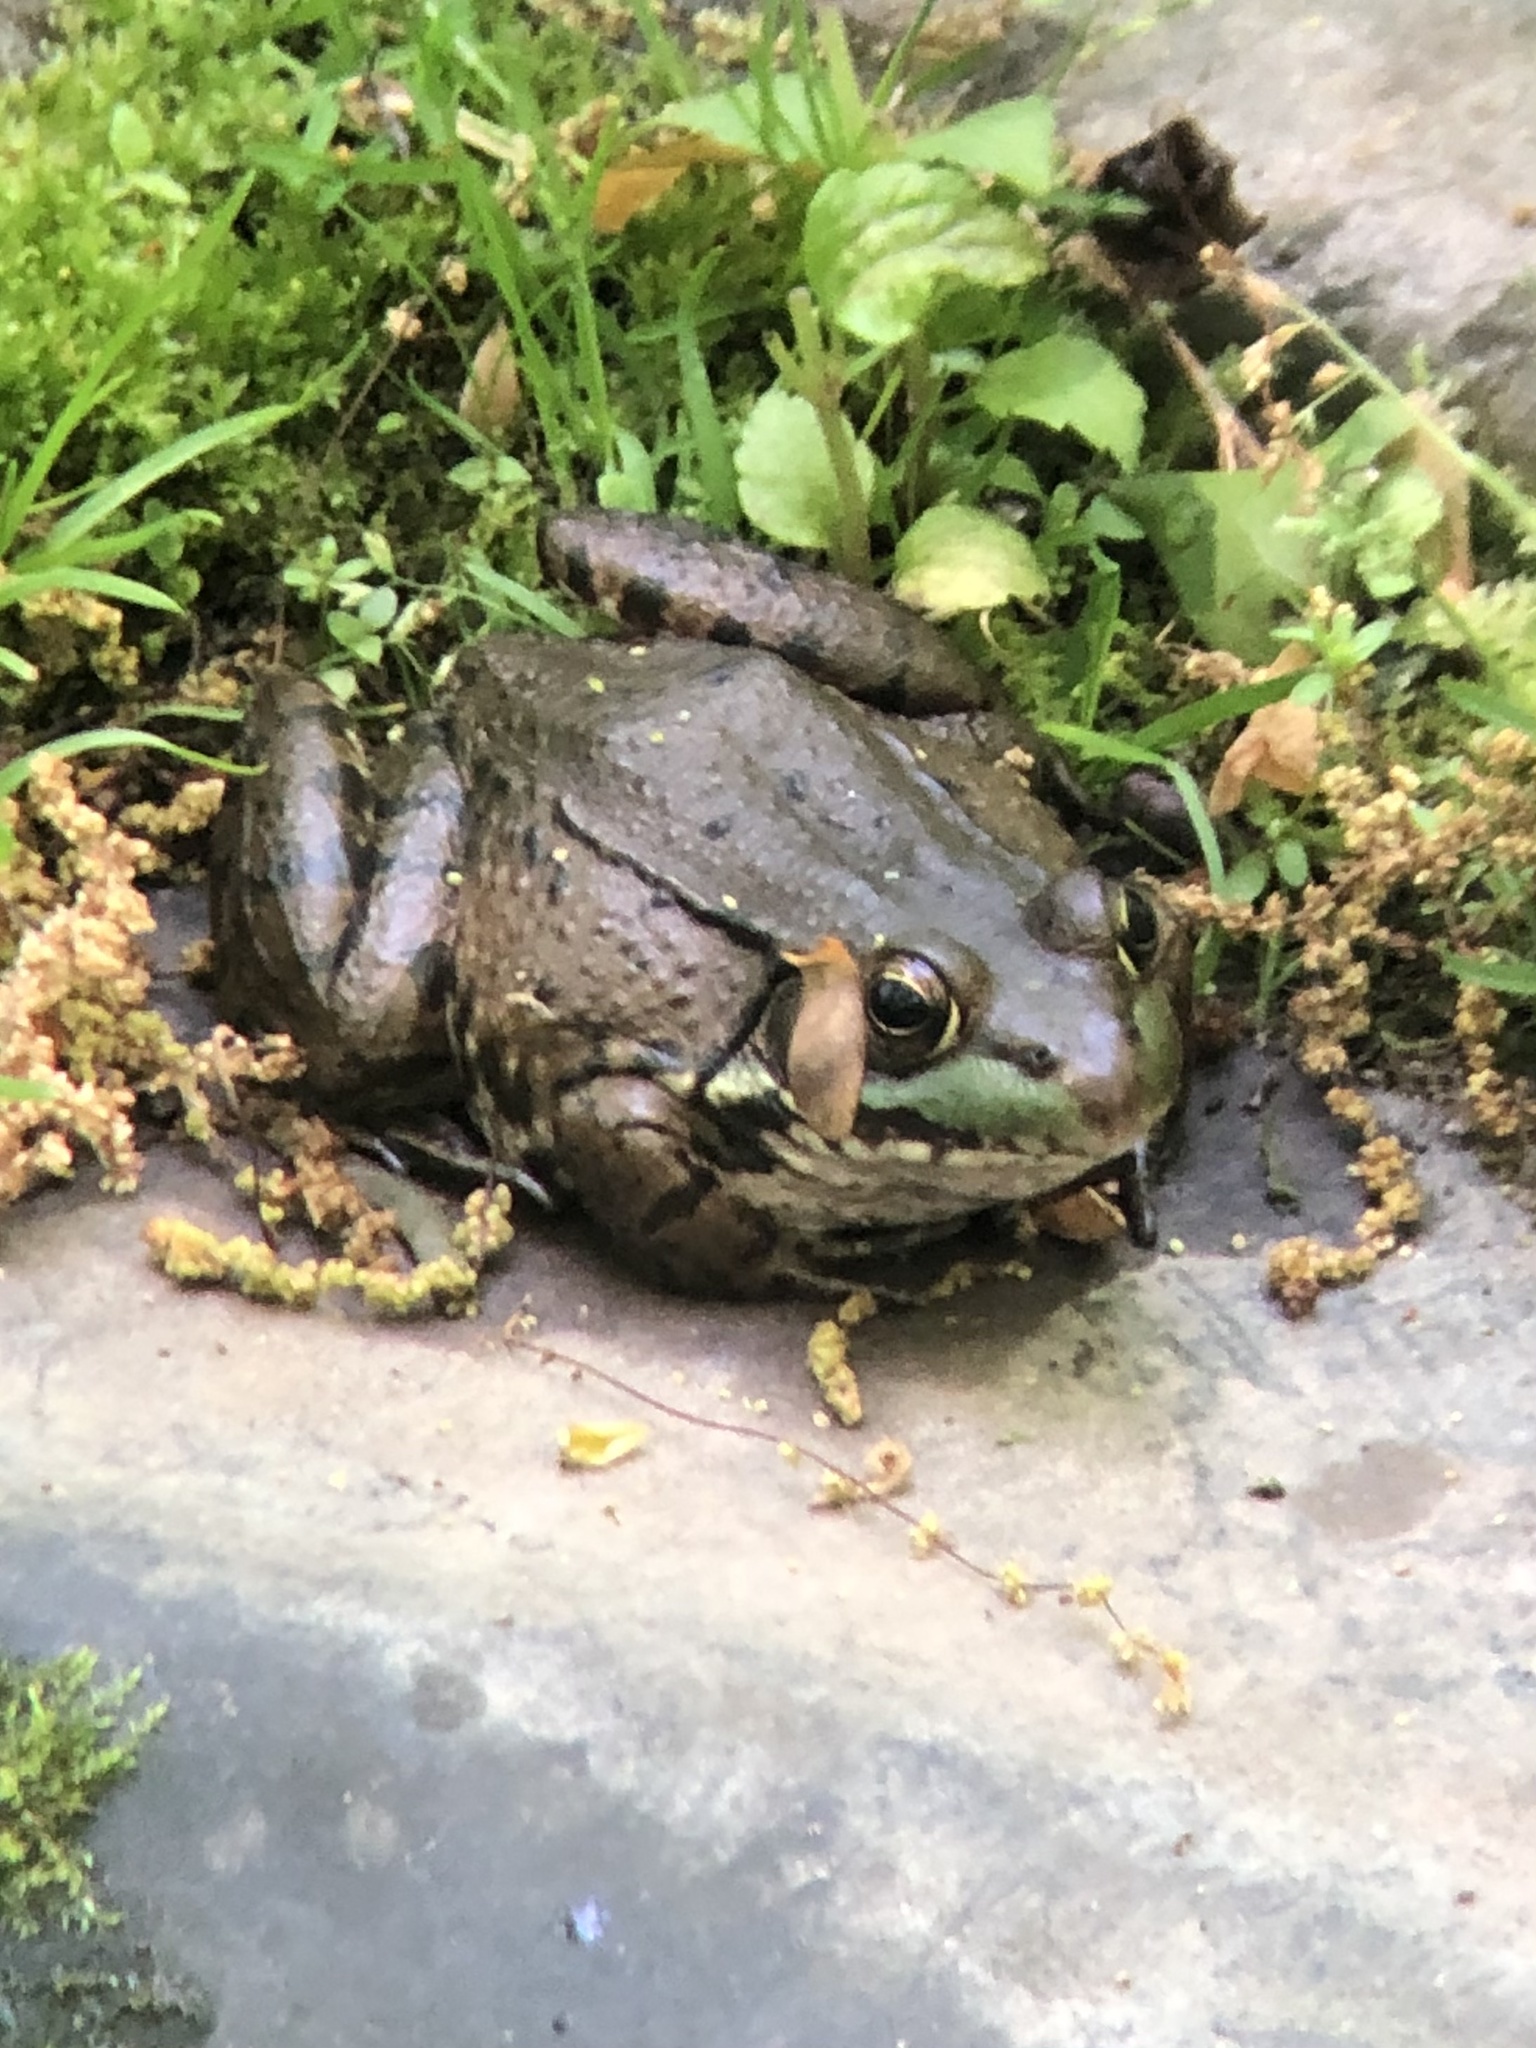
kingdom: Animalia
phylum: Chordata
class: Amphibia
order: Anura
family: Ranidae
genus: Lithobates
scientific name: Lithobates clamitans
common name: Green frog
